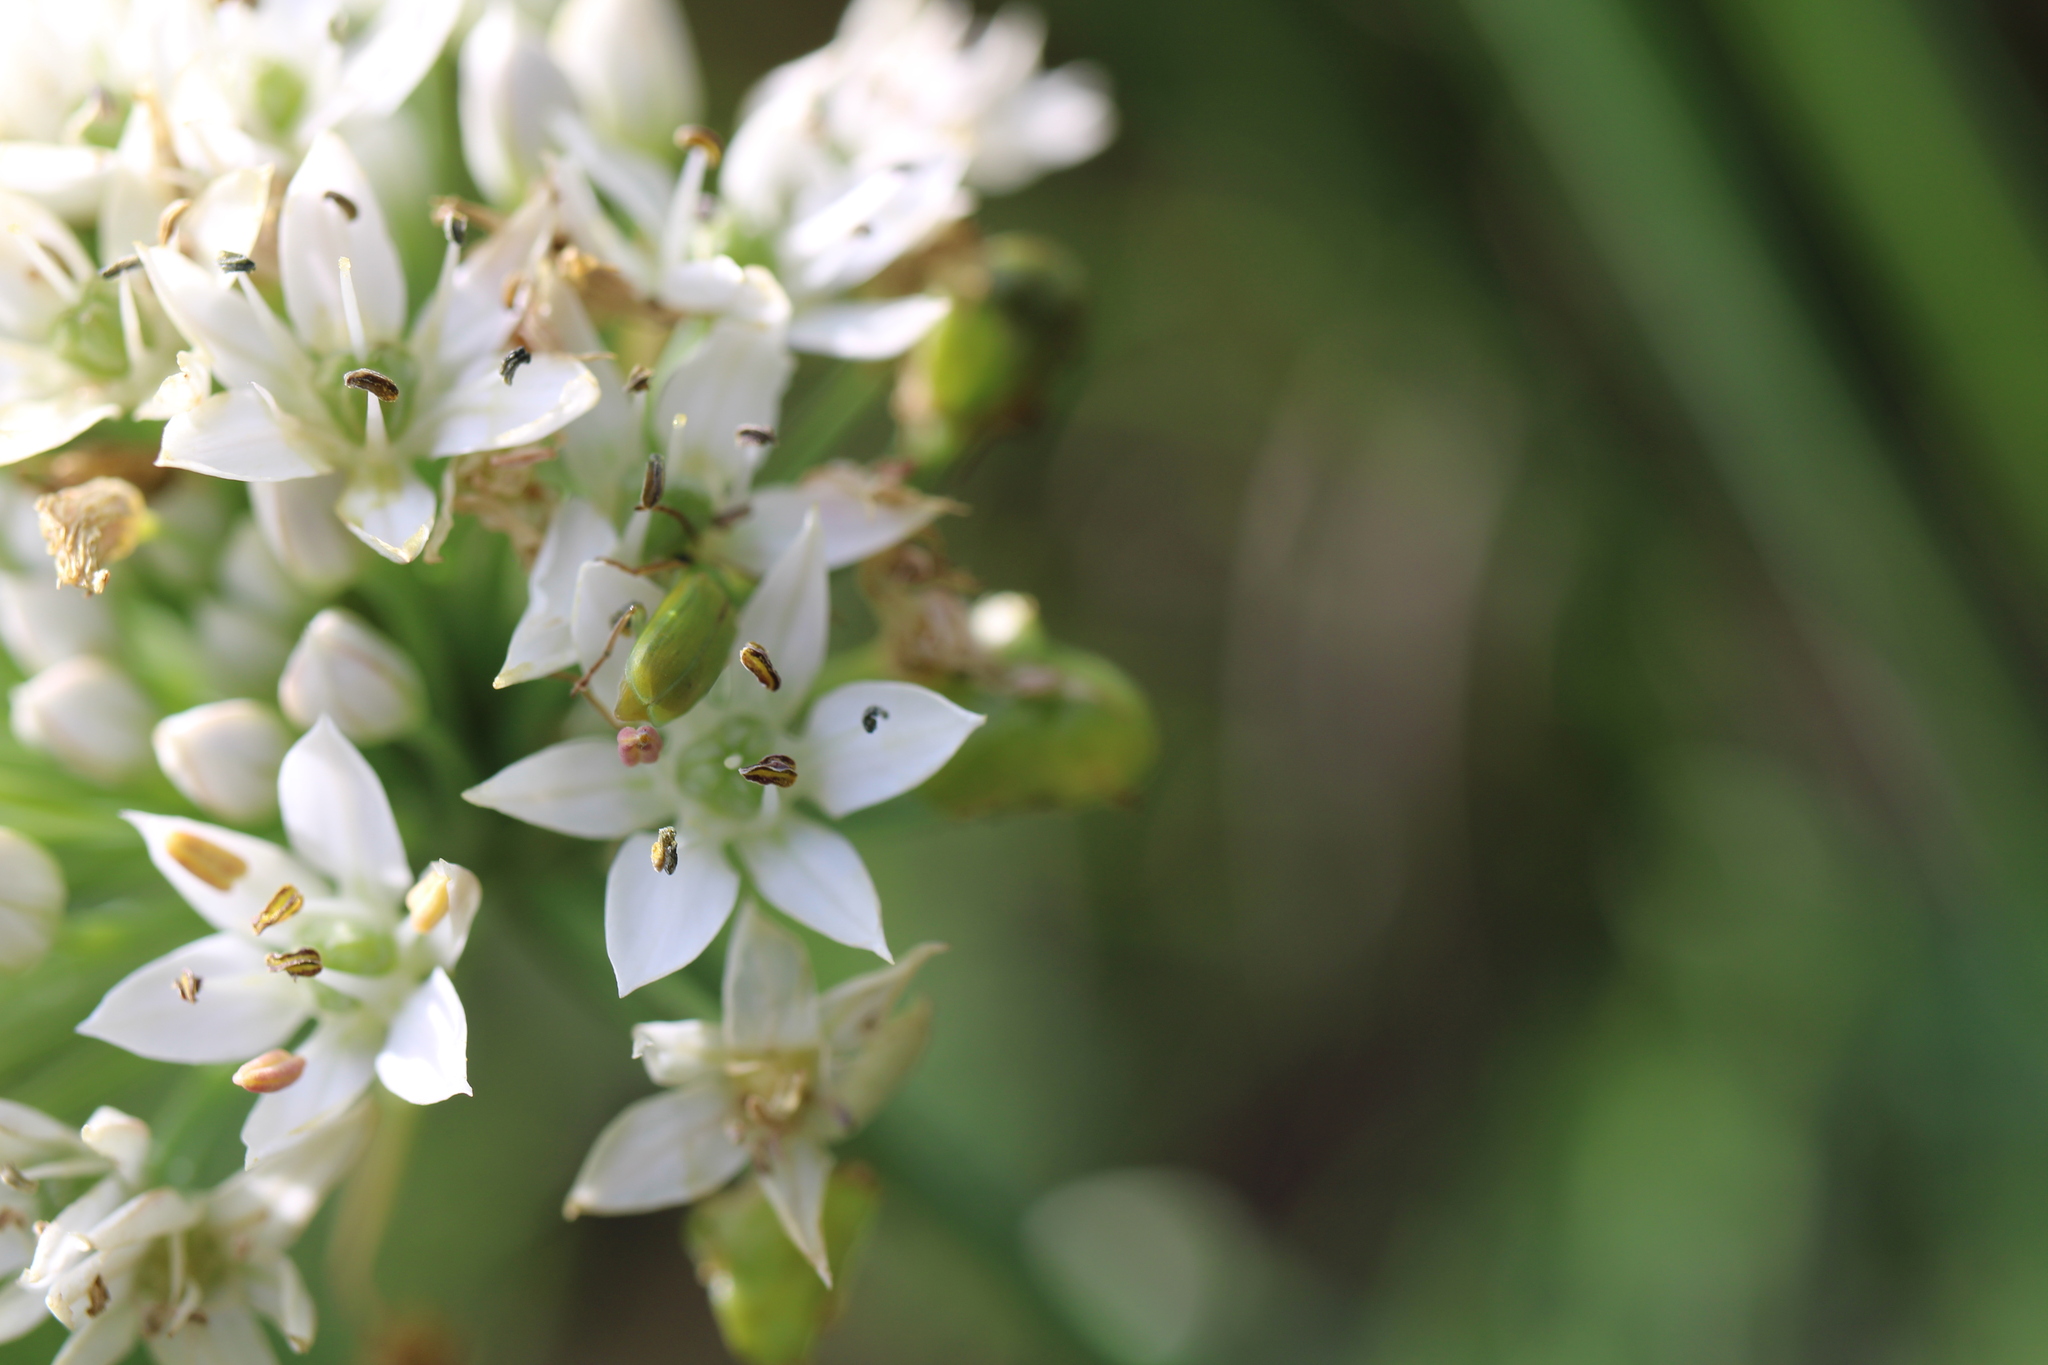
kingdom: Animalia
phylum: Arthropoda
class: Insecta
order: Coleoptera
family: Chrysomelidae
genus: Diabrotica
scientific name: Diabrotica barberi
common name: Northern corn rootworm
